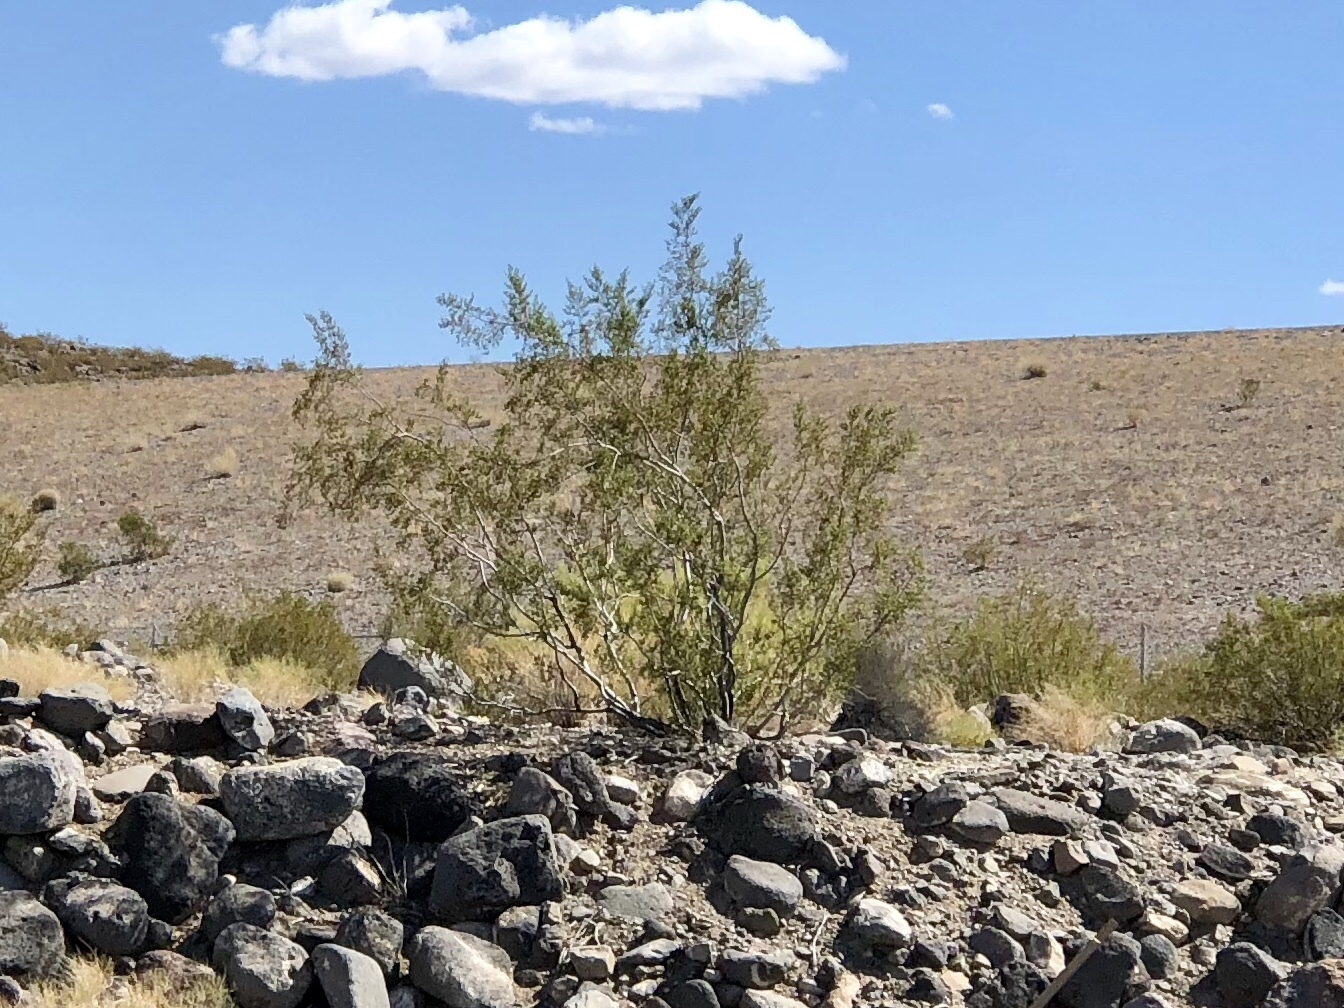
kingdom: Plantae
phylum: Tracheophyta
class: Magnoliopsida
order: Zygophyllales
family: Zygophyllaceae
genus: Larrea
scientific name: Larrea tridentata
